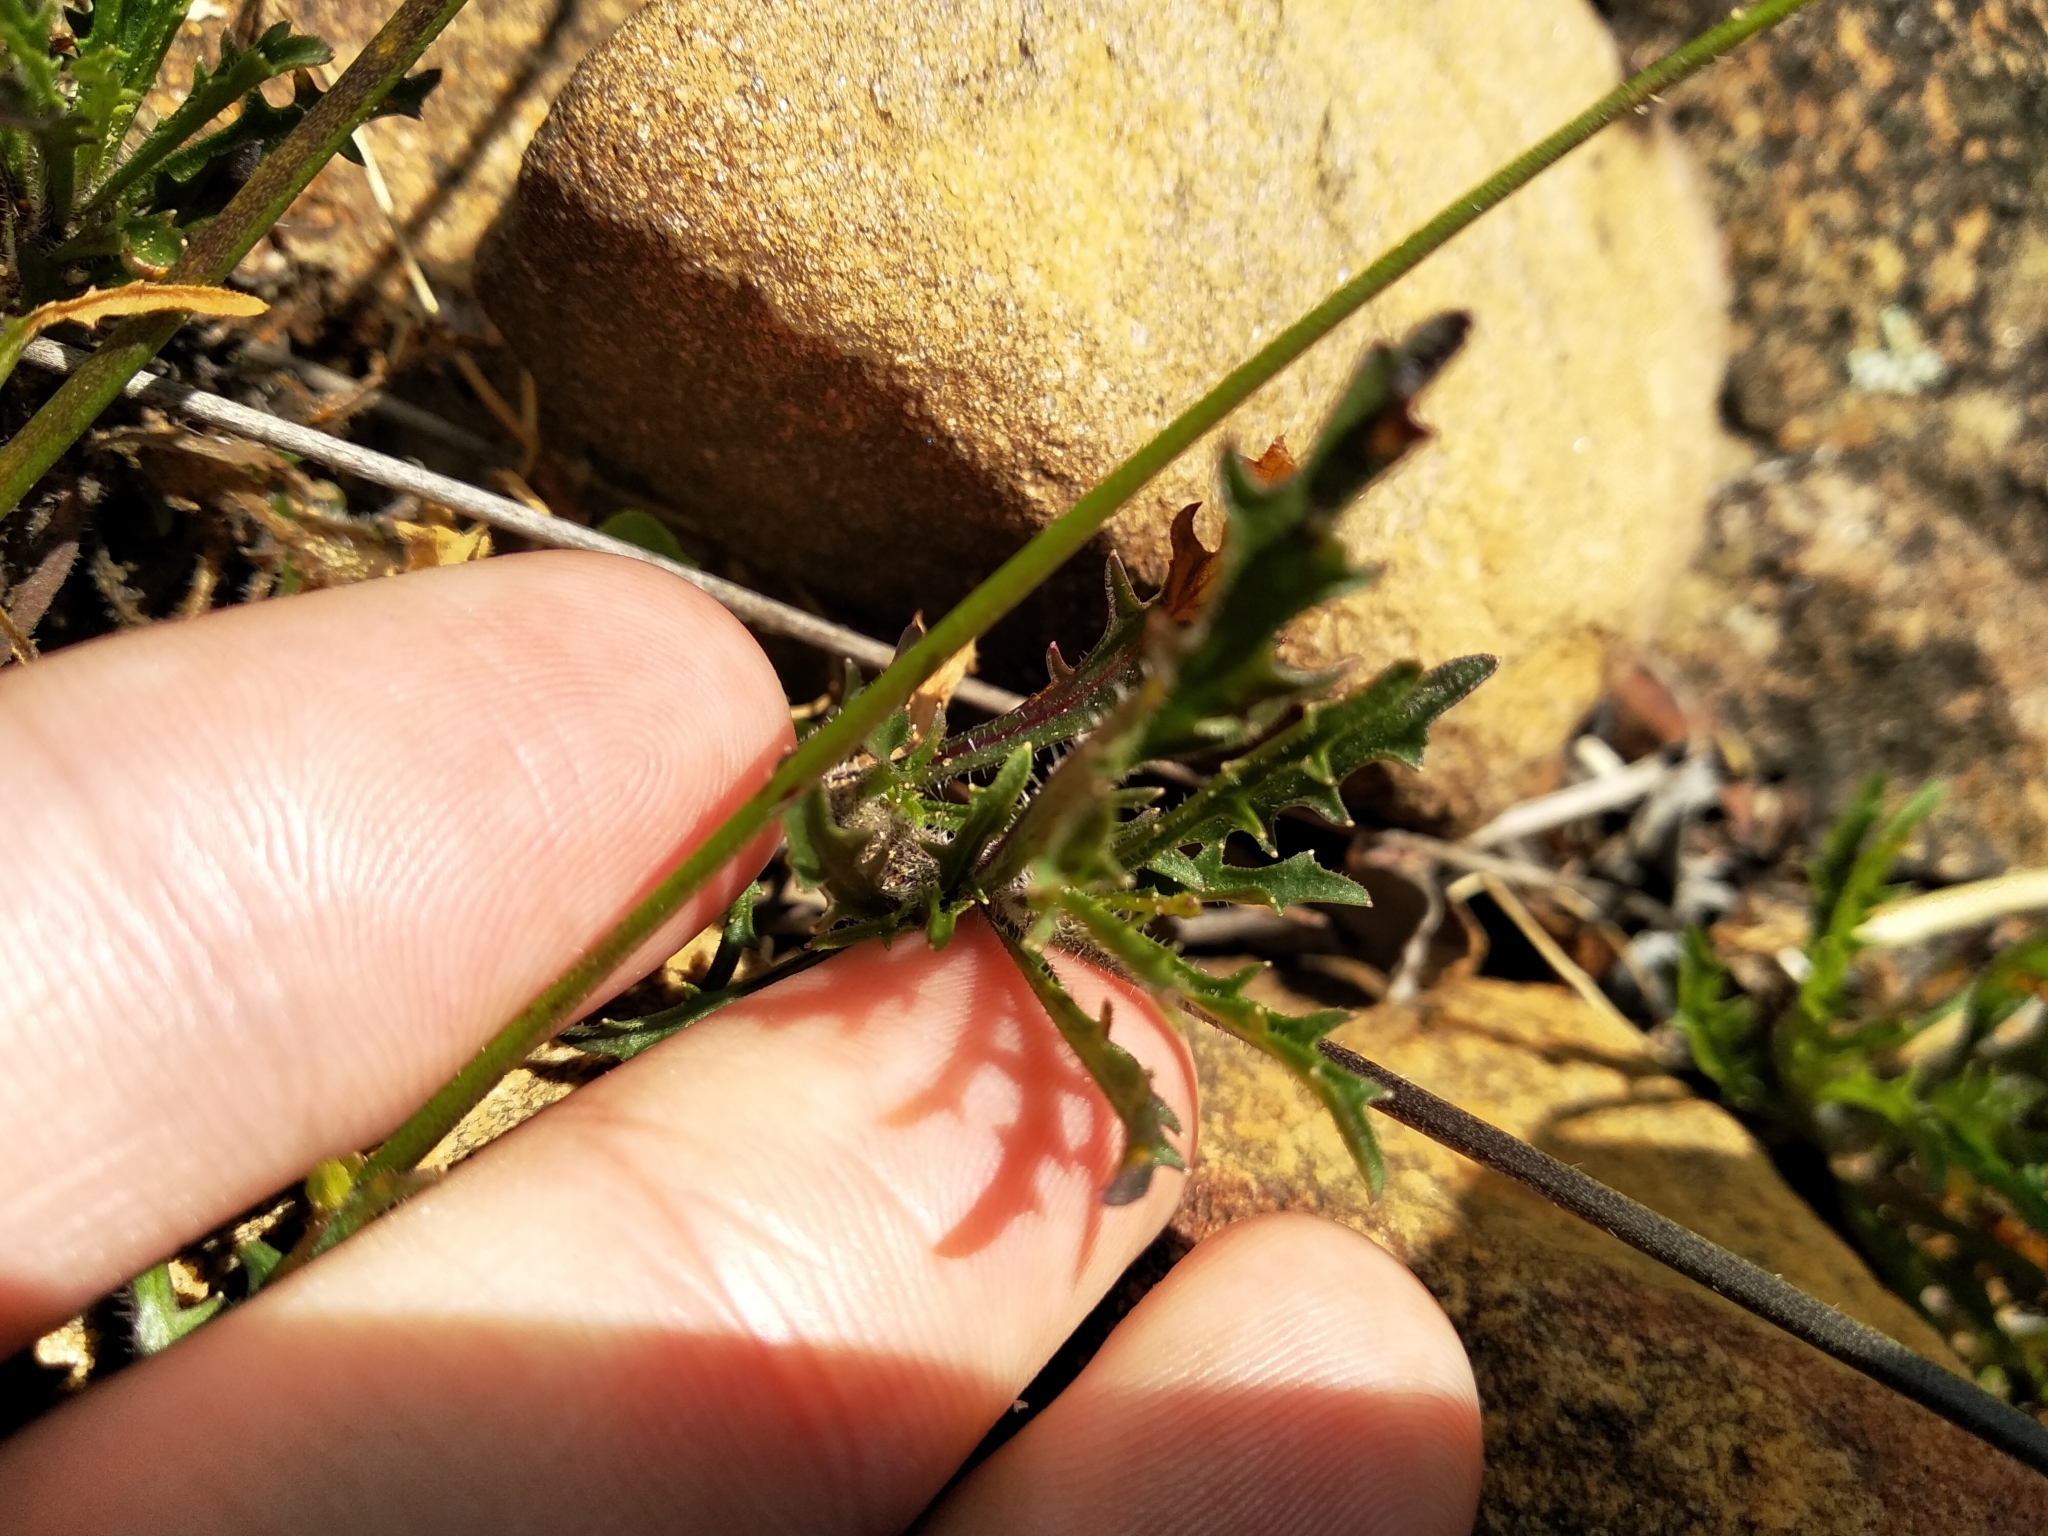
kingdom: Plantae
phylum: Tracheophyta
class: Magnoliopsida
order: Asterales
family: Campanulaceae
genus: Lobelia
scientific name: Lobelia coronopifolia
